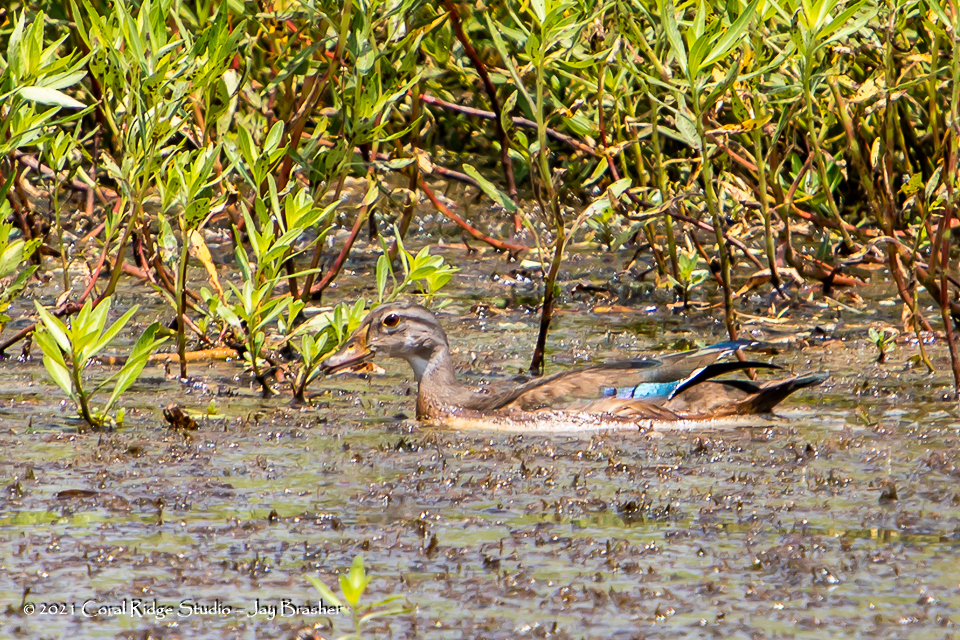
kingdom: Animalia
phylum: Chordata
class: Aves
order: Anseriformes
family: Anatidae
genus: Aix
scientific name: Aix sponsa
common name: Wood duck
